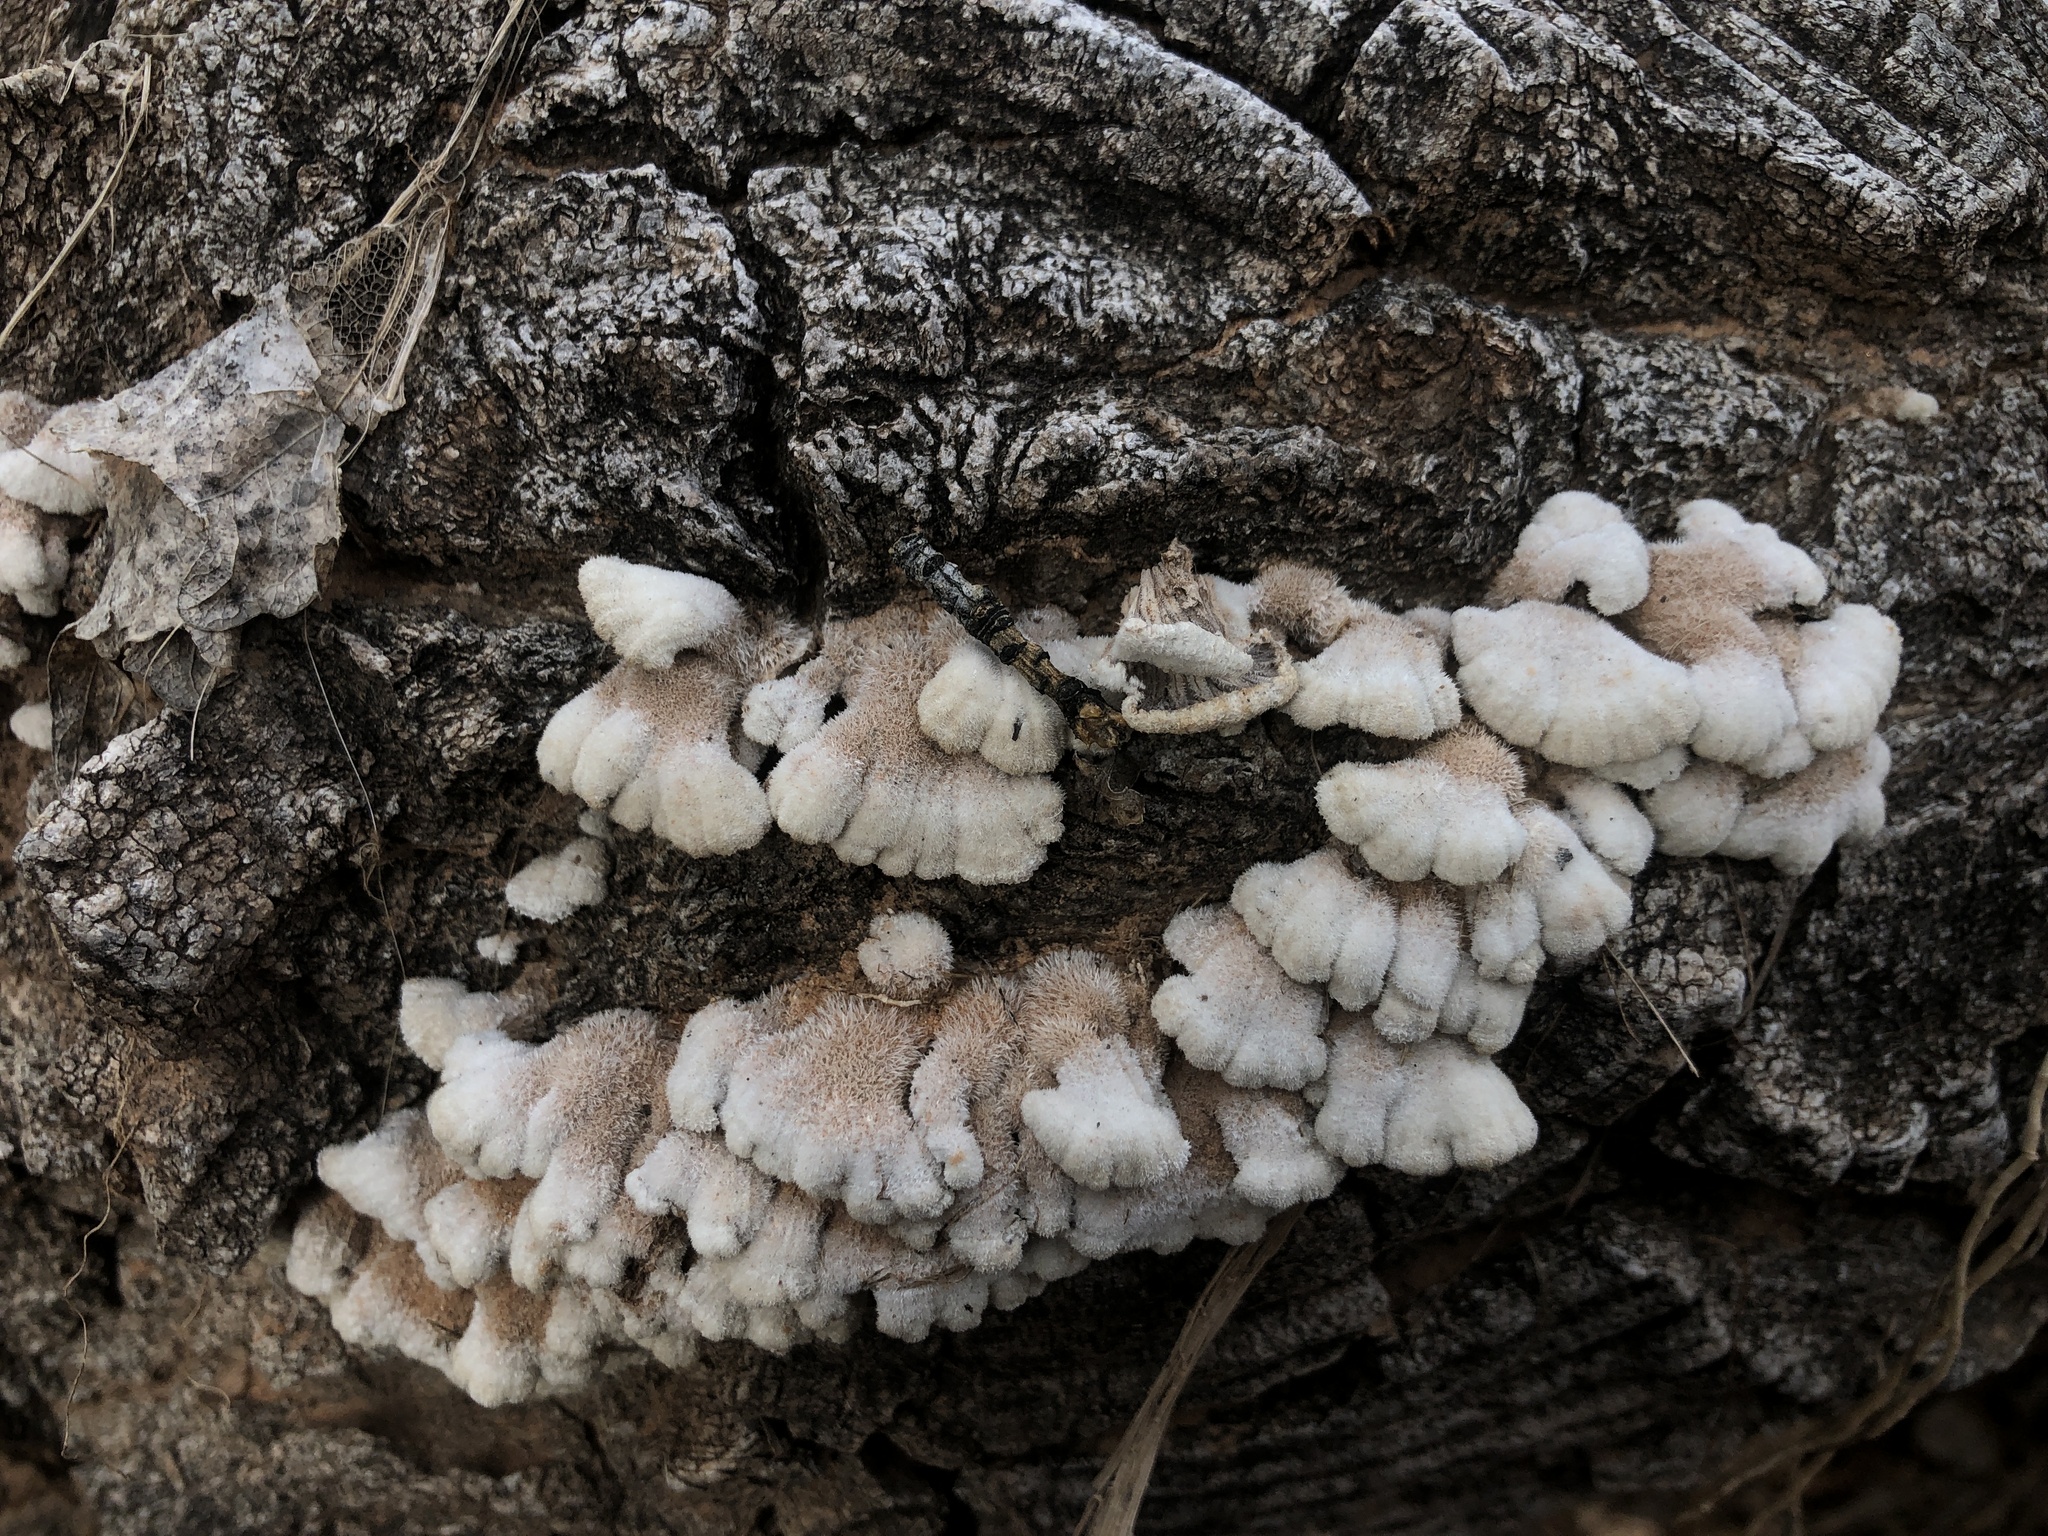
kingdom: Fungi
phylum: Basidiomycota
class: Agaricomycetes
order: Agaricales
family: Schizophyllaceae
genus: Schizophyllum
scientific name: Schizophyllum commune
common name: Common porecrust
